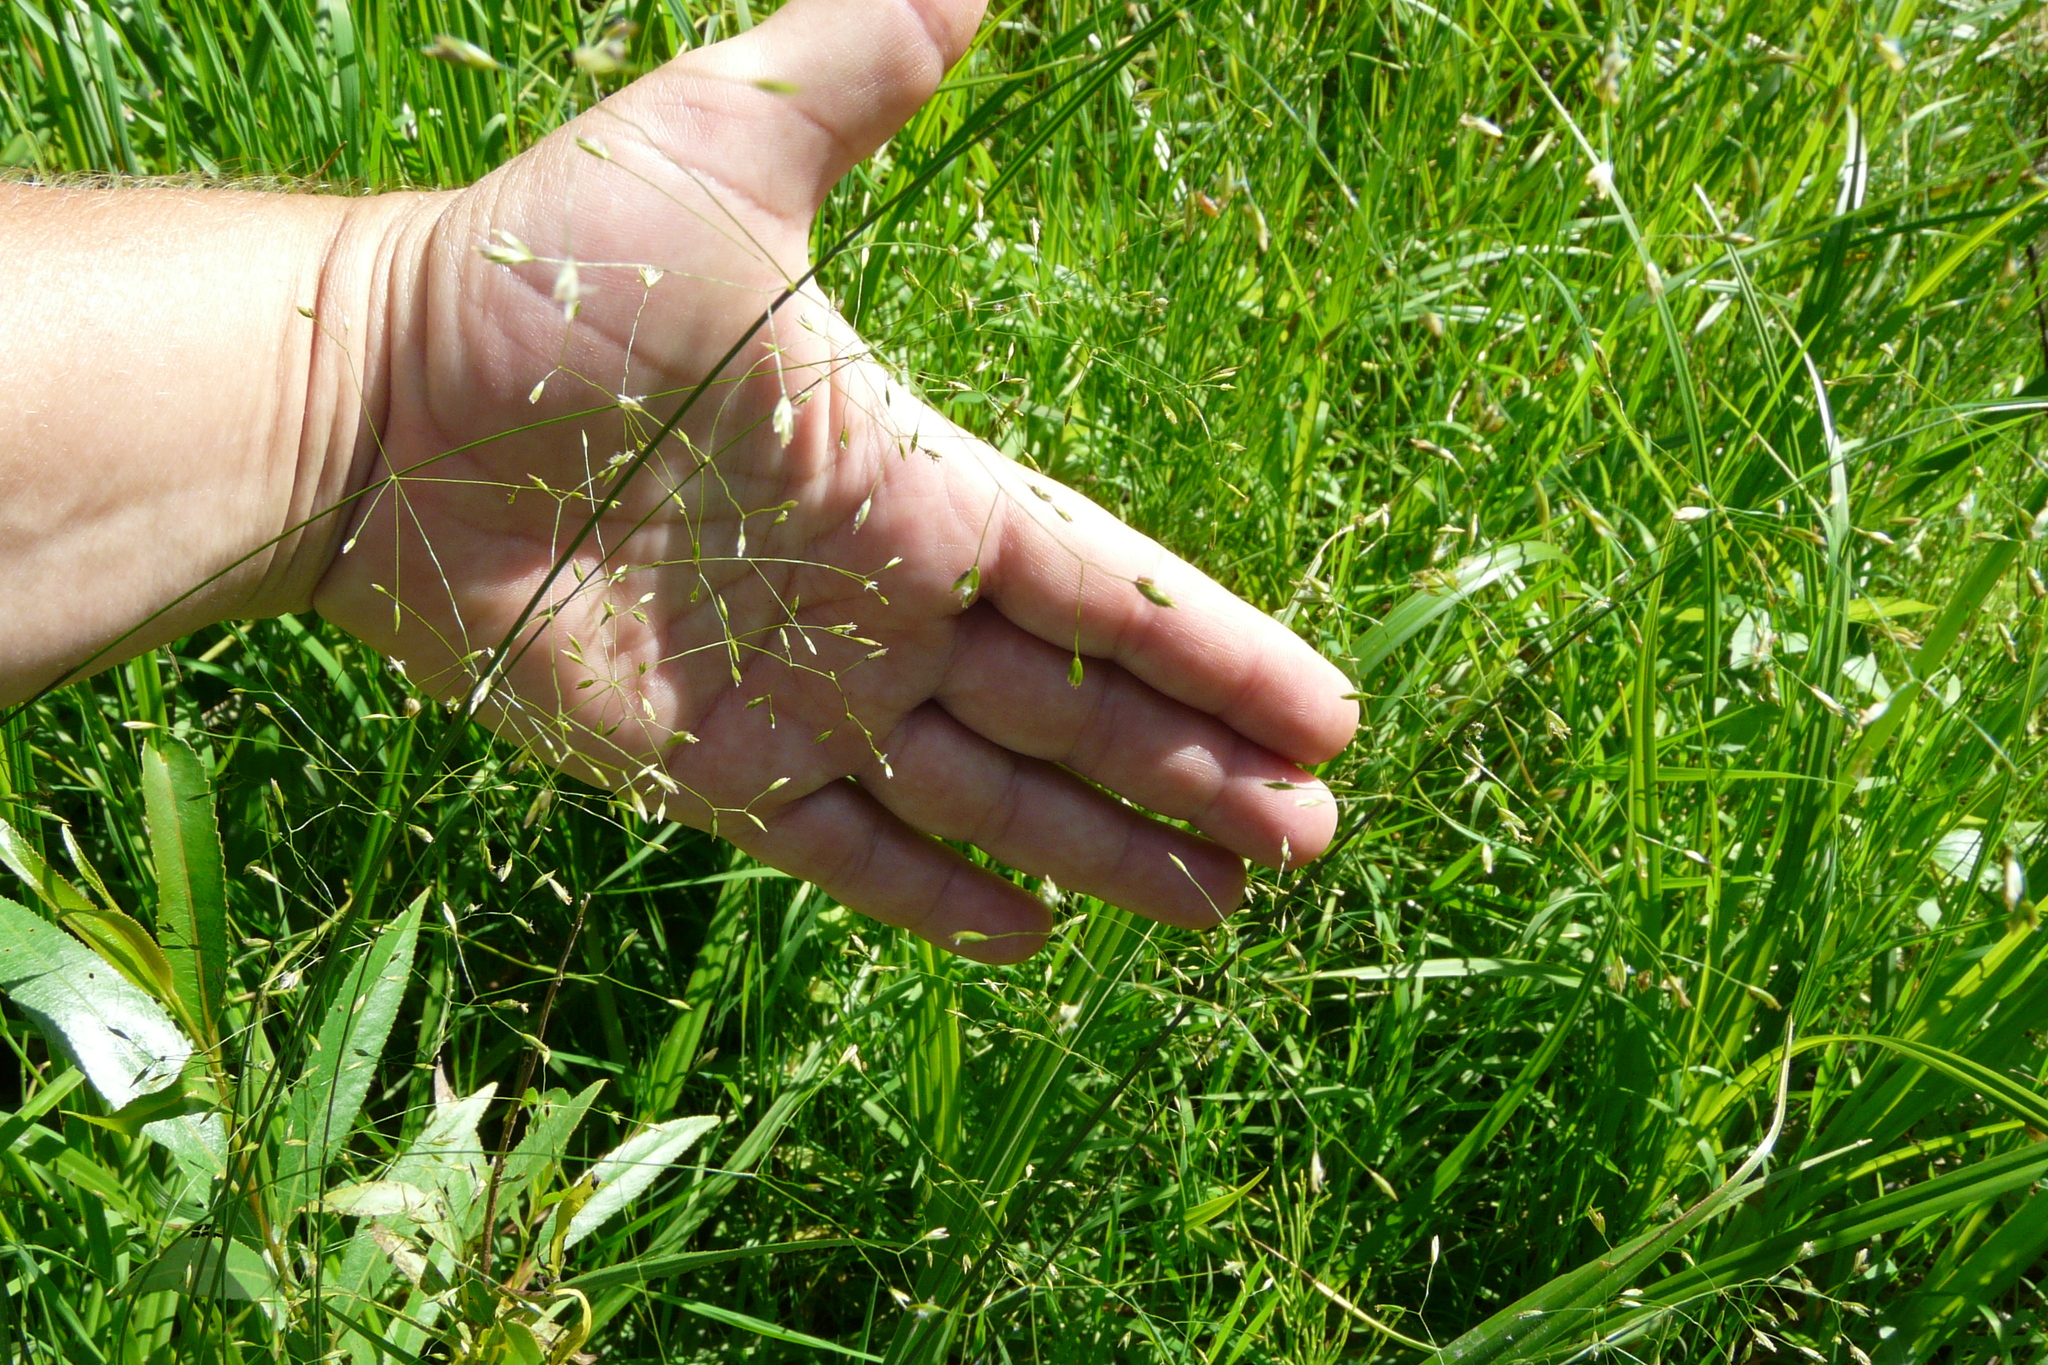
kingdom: Plantae
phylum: Tracheophyta
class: Liliopsida
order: Poales
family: Poaceae
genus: Poa
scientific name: Poa palustris
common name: Swamp meadow-grass
